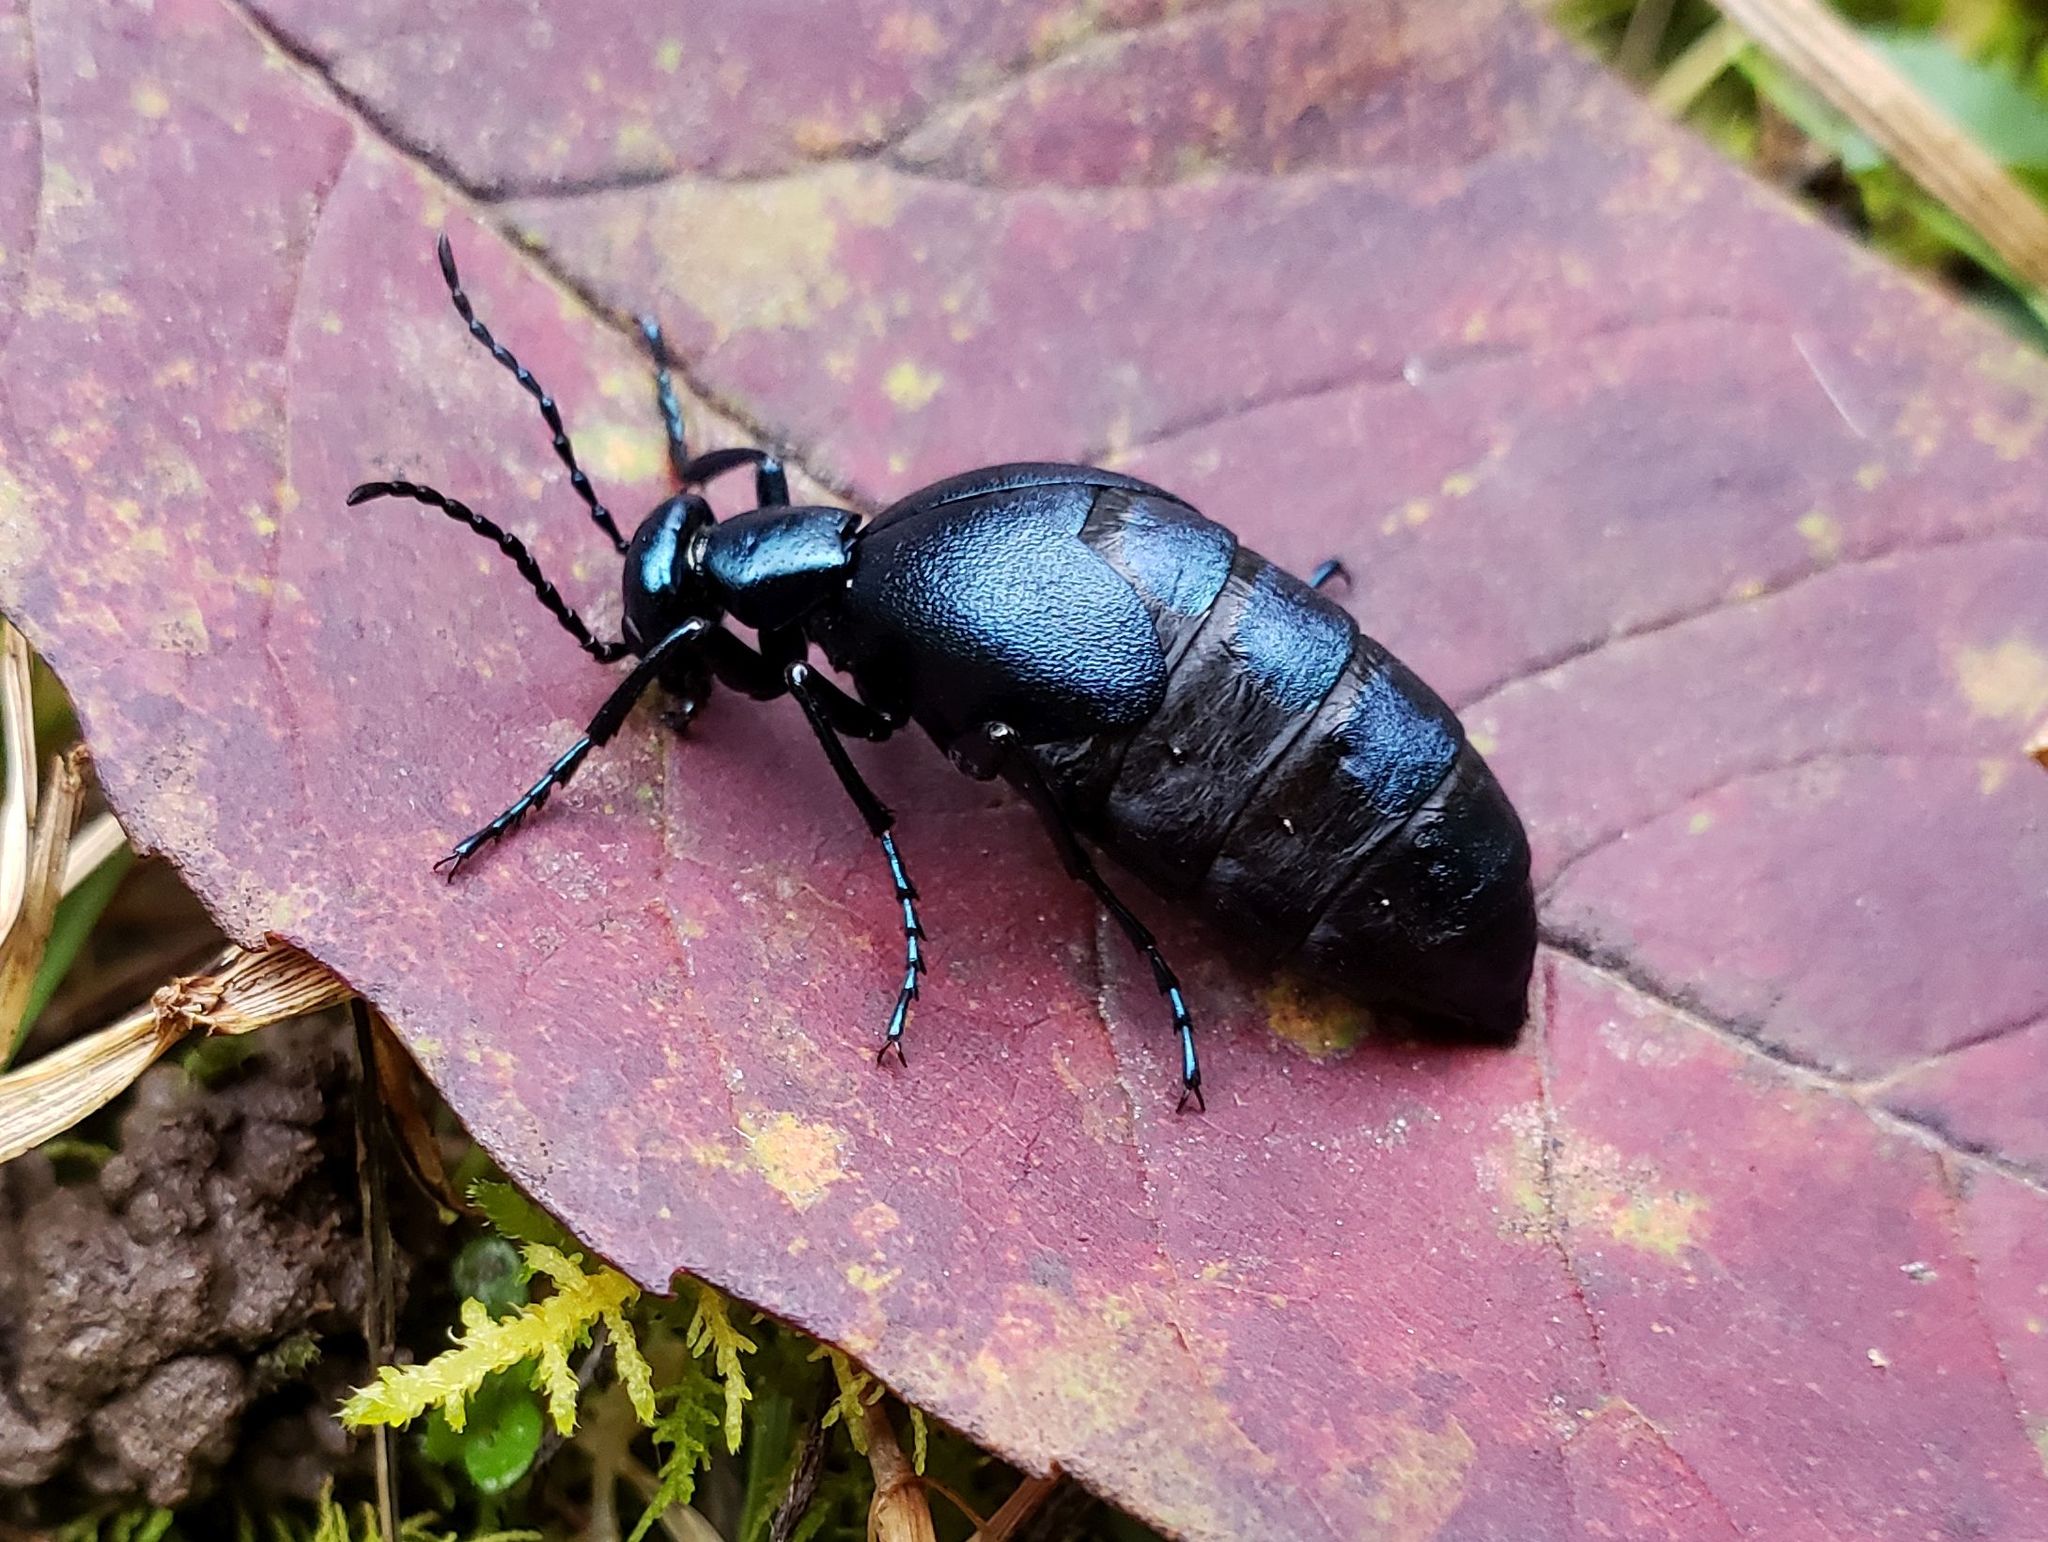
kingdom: Animalia
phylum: Arthropoda
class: Insecta
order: Coleoptera
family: Meloidae
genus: Meloe
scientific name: Meloe impressus
